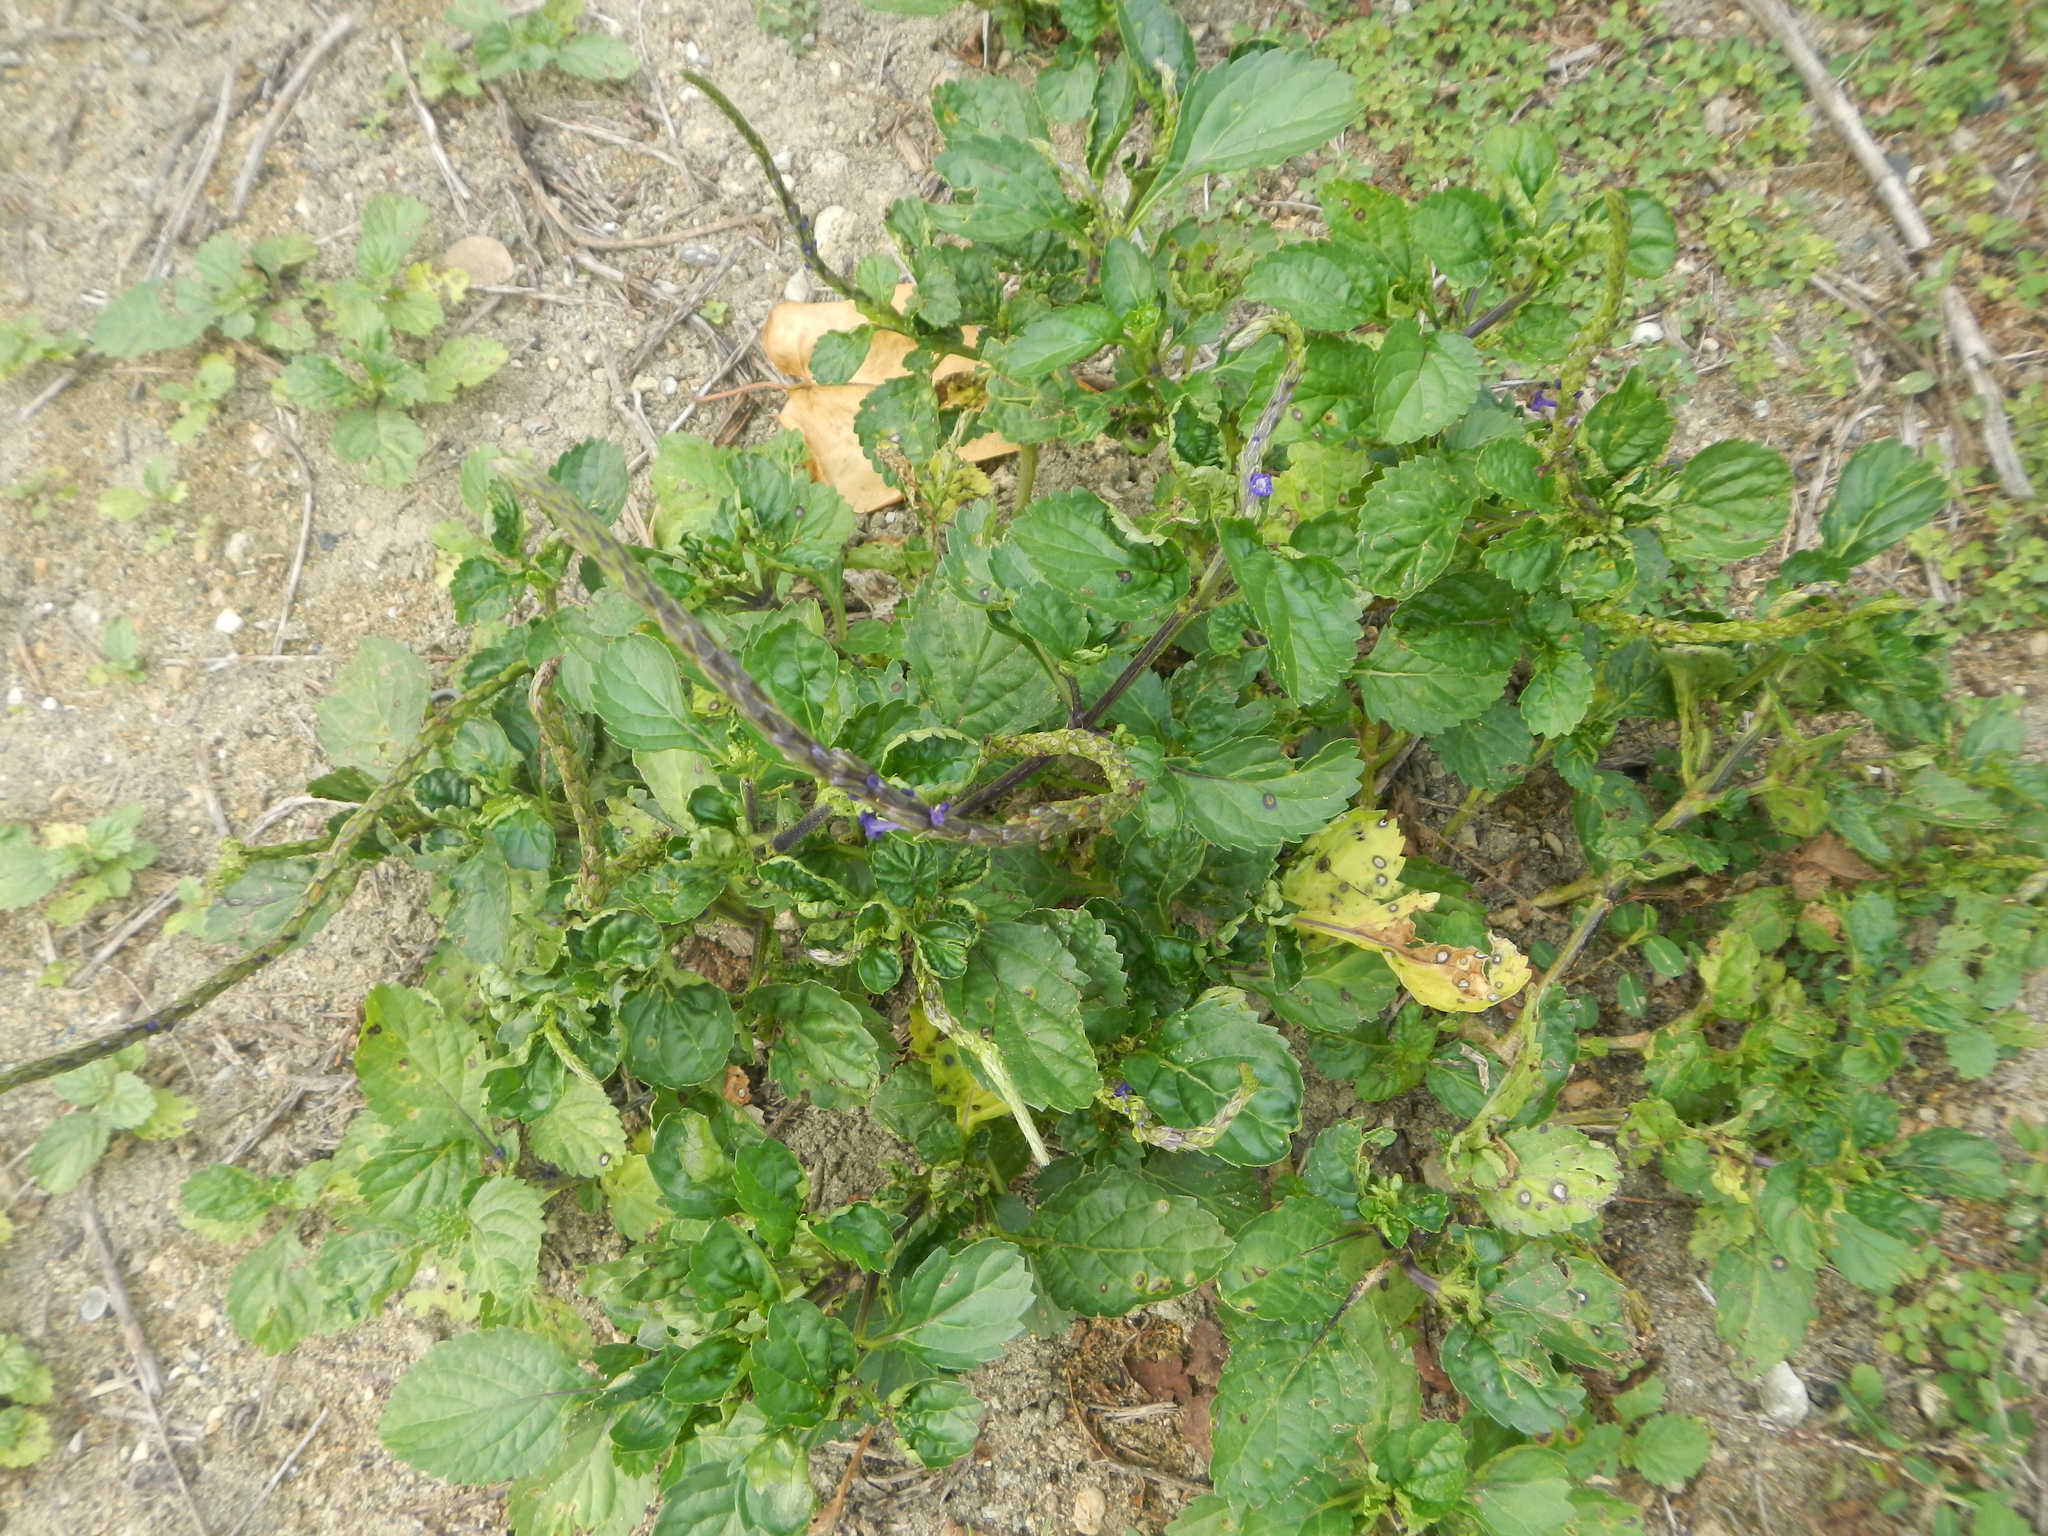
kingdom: Plantae
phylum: Tracheophyta
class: Magnoliopsida
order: Lamiales
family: Verbenaceae
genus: Stachytarpheta
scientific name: Stachytarpheta jamaicensis
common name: Light-blue snakeweed
